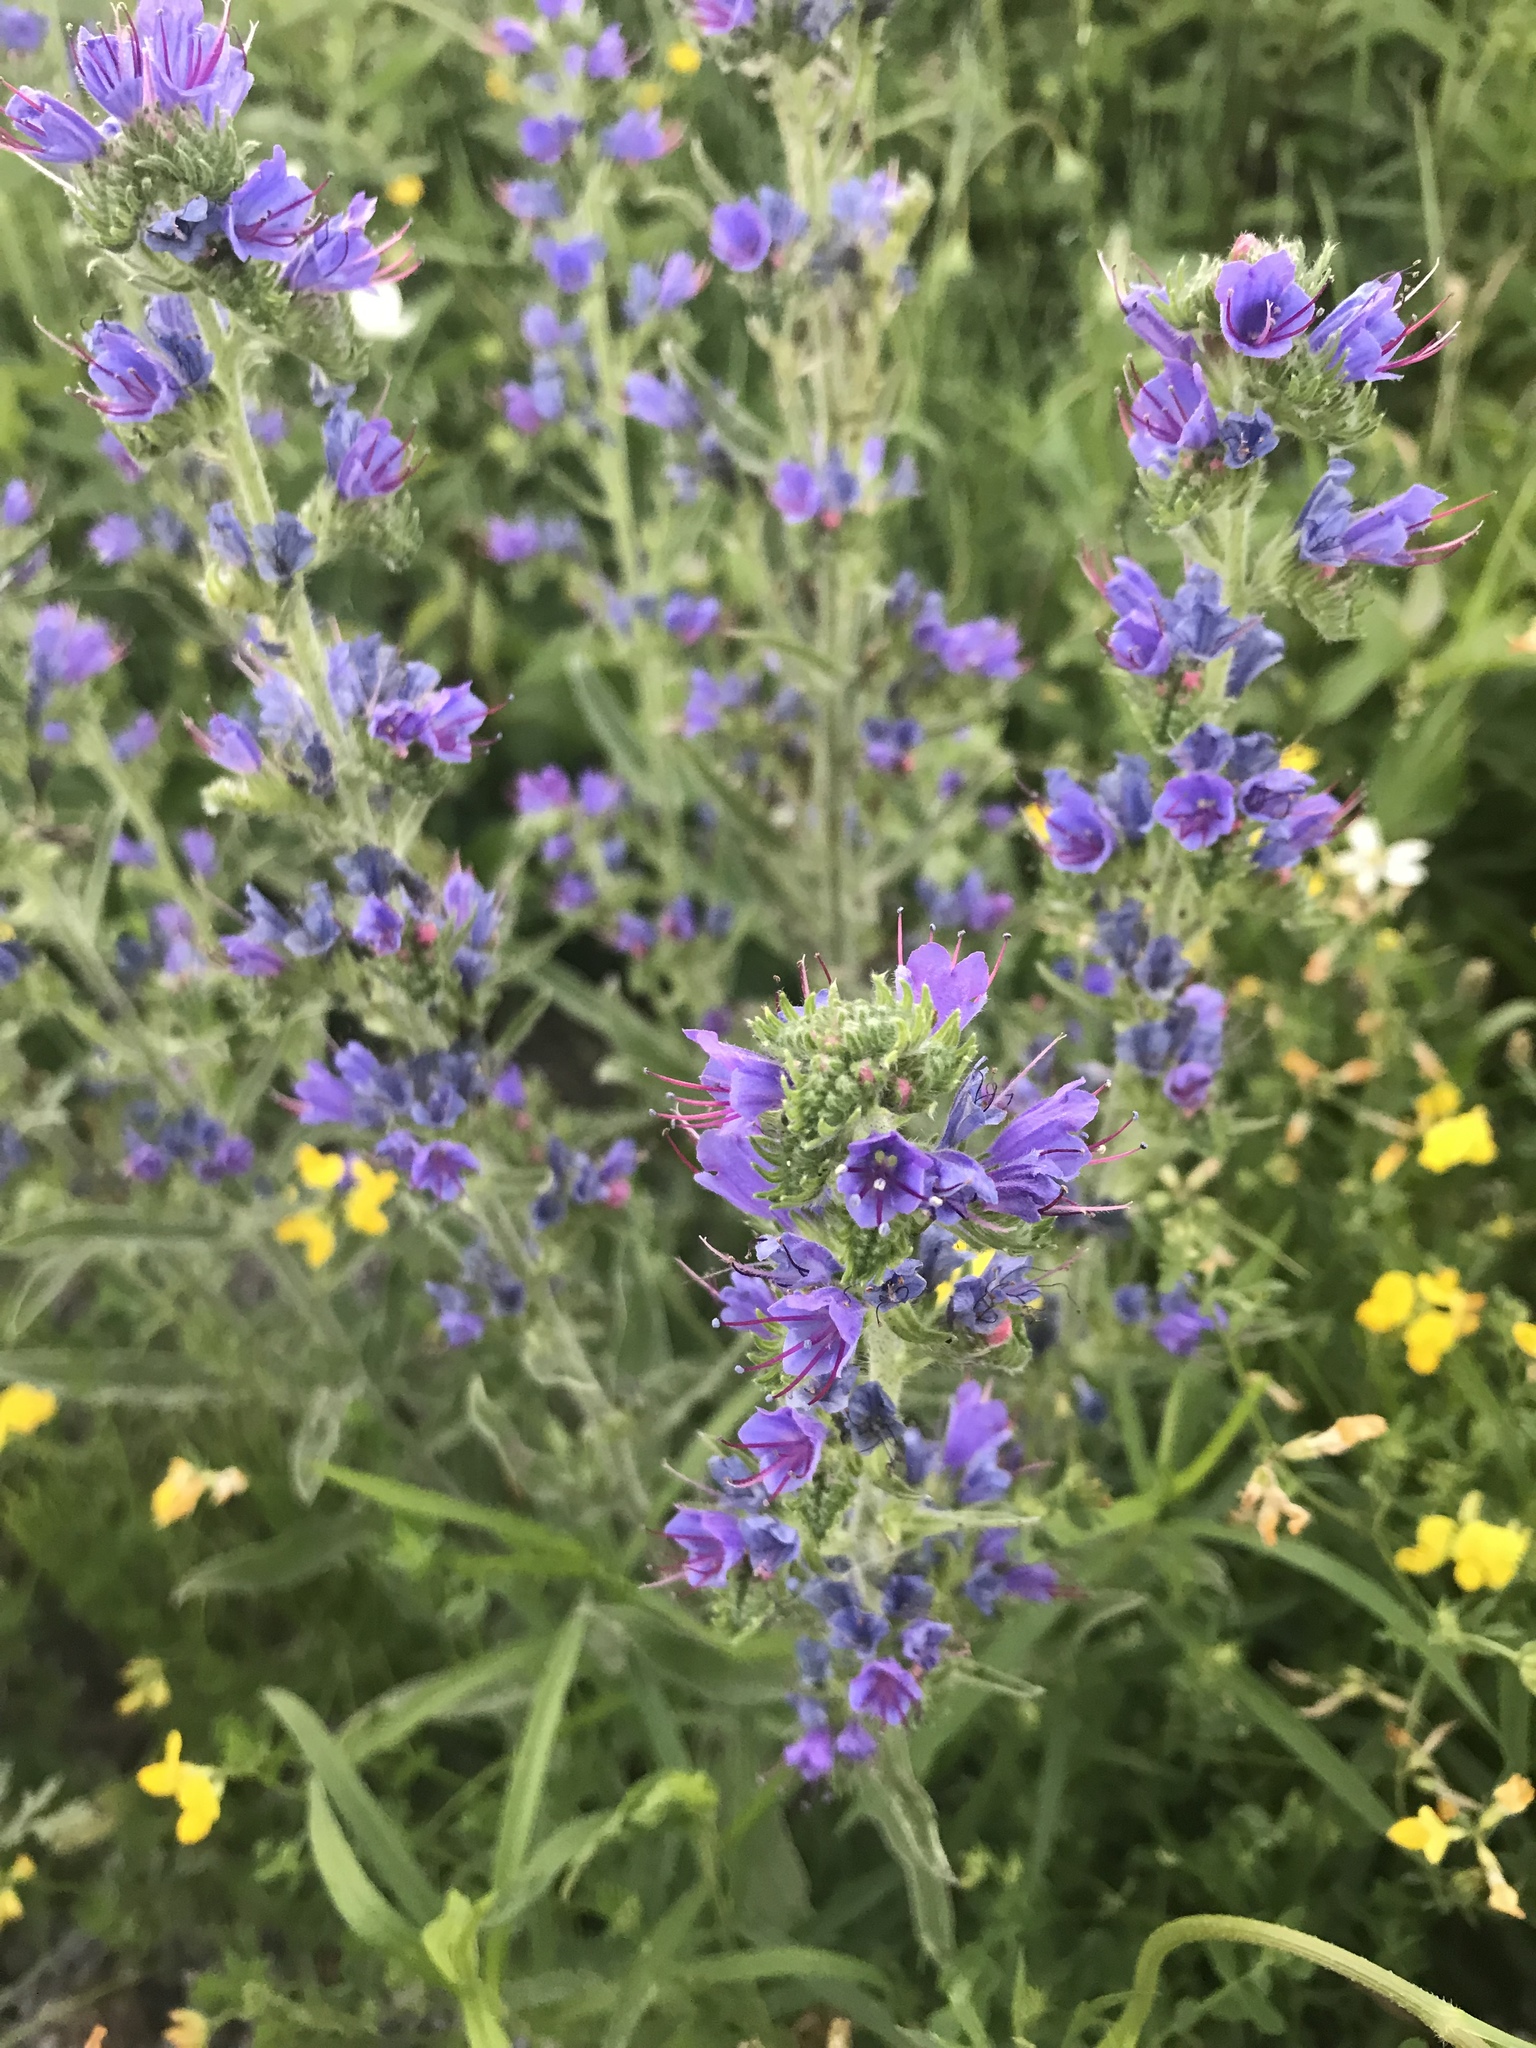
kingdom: Plantae
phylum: Tracheophyta
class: Magnoliopsida
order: Boraginales
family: Boraginaceae
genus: Echium
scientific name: Echium vulgare
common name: Common viper's bugloss
